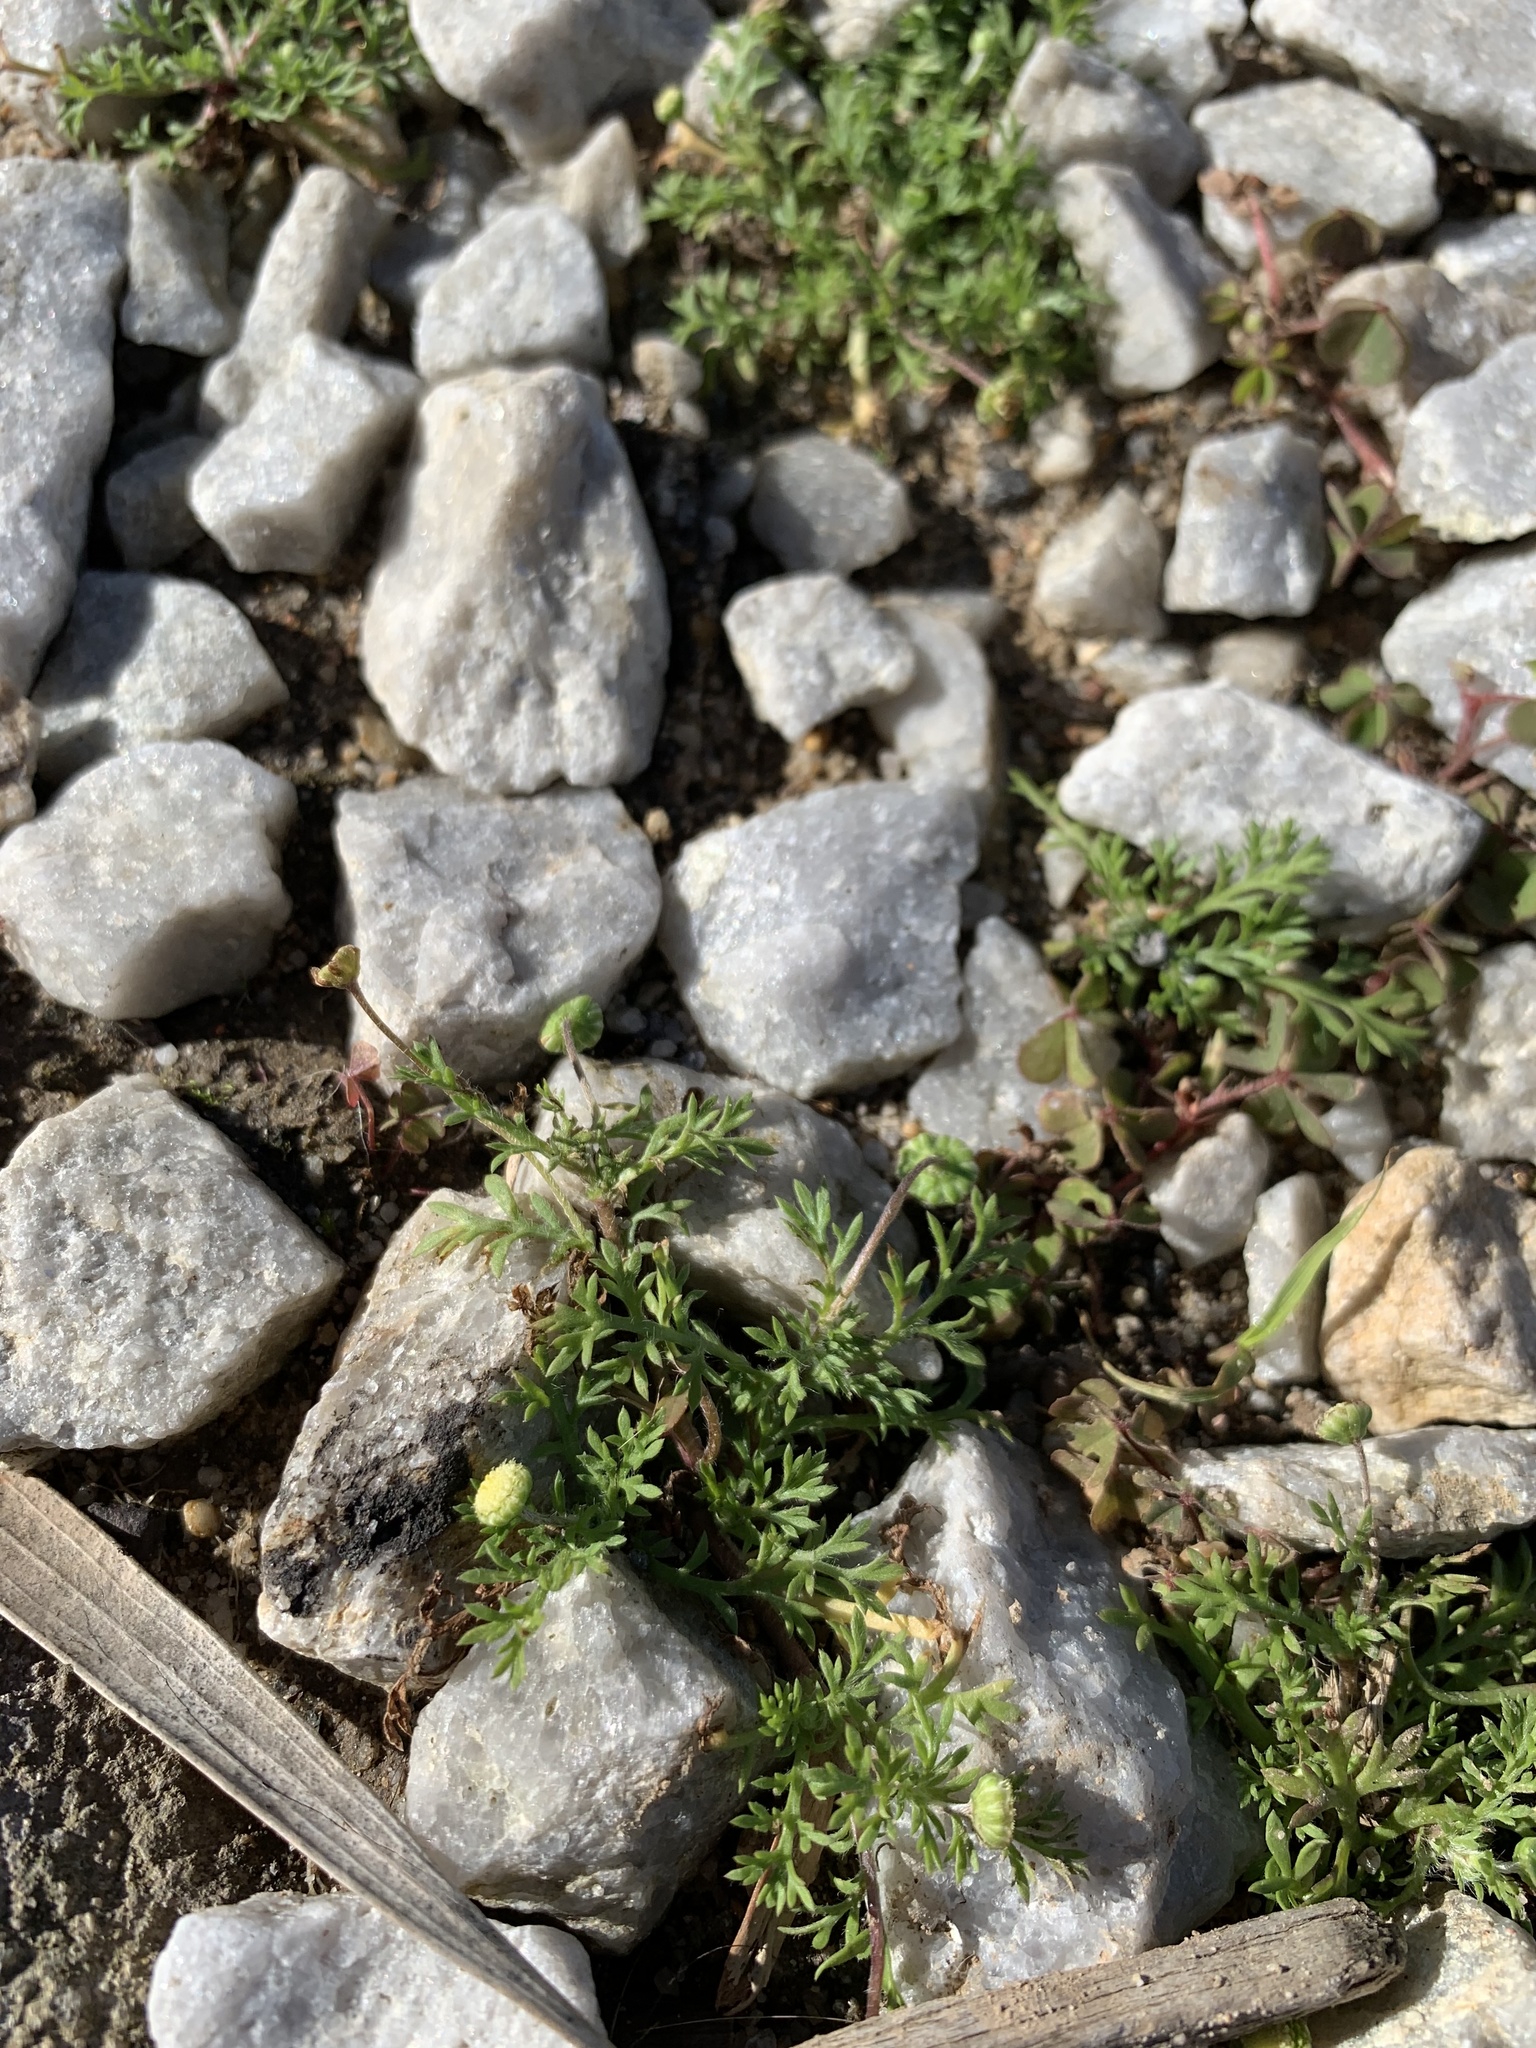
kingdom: Plantae
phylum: Tracheophyta
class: Magnoliopsida
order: Asterales
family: Asteraceae
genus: Cotula
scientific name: Cotula australis
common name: Australian waterbuttons
